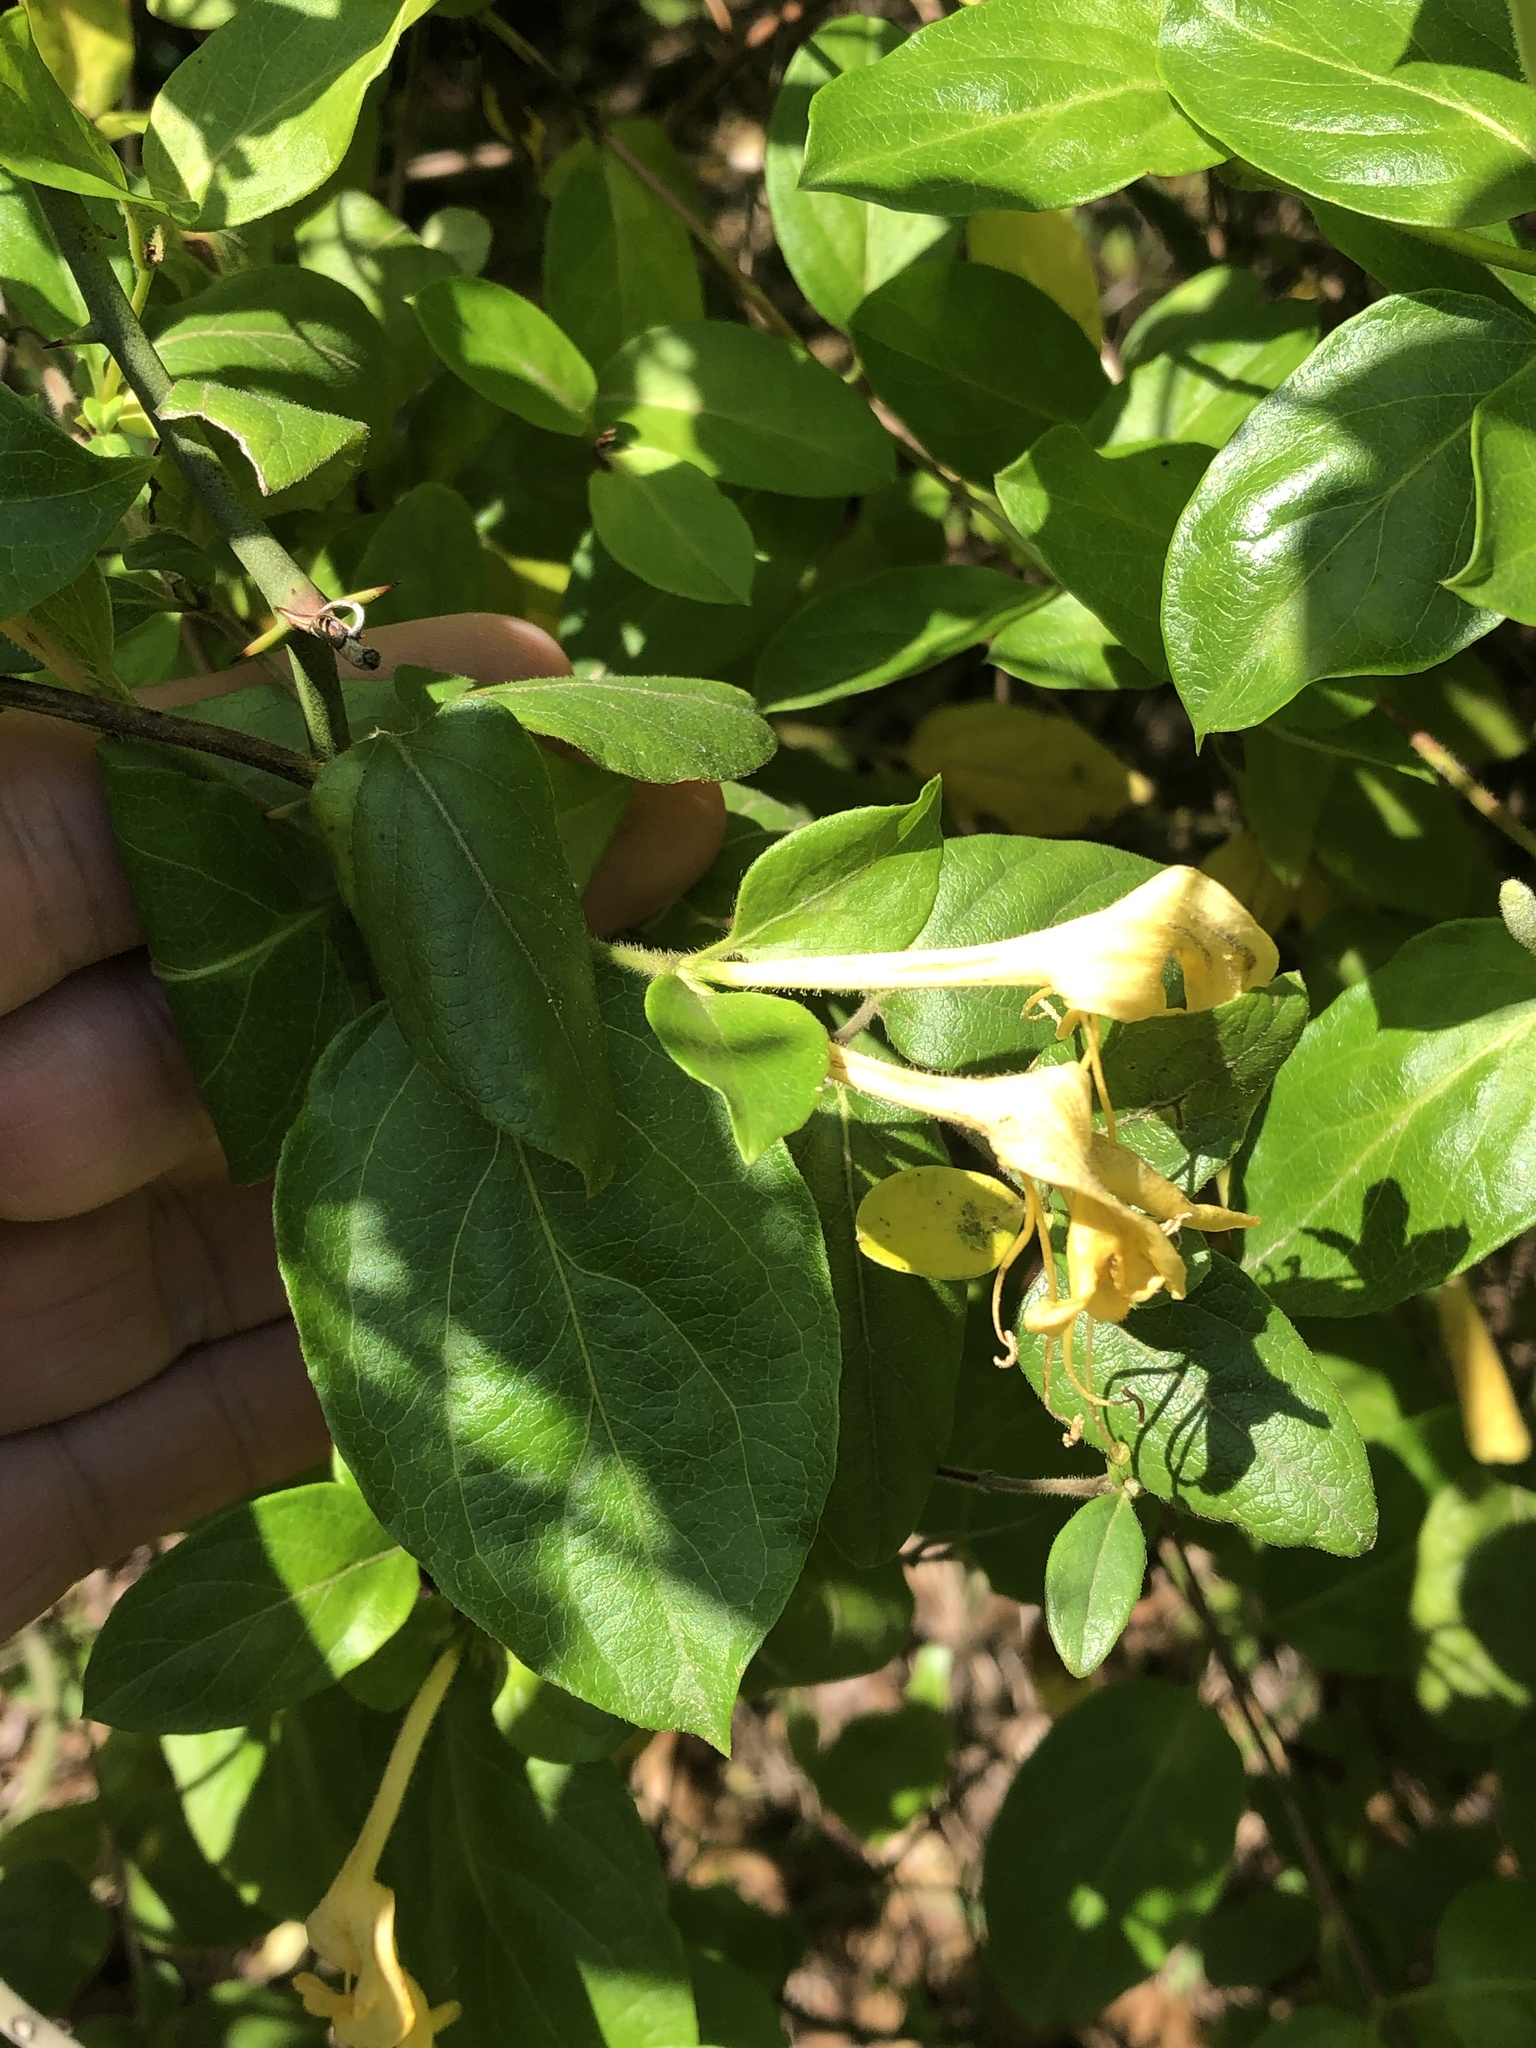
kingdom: Plantae
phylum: Tracheophyta
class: Magnoliopsida
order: Dipsacales
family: Caprifoliaceae
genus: Lonicera
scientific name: Lonicera japonica
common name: Japanese honeysuckle
